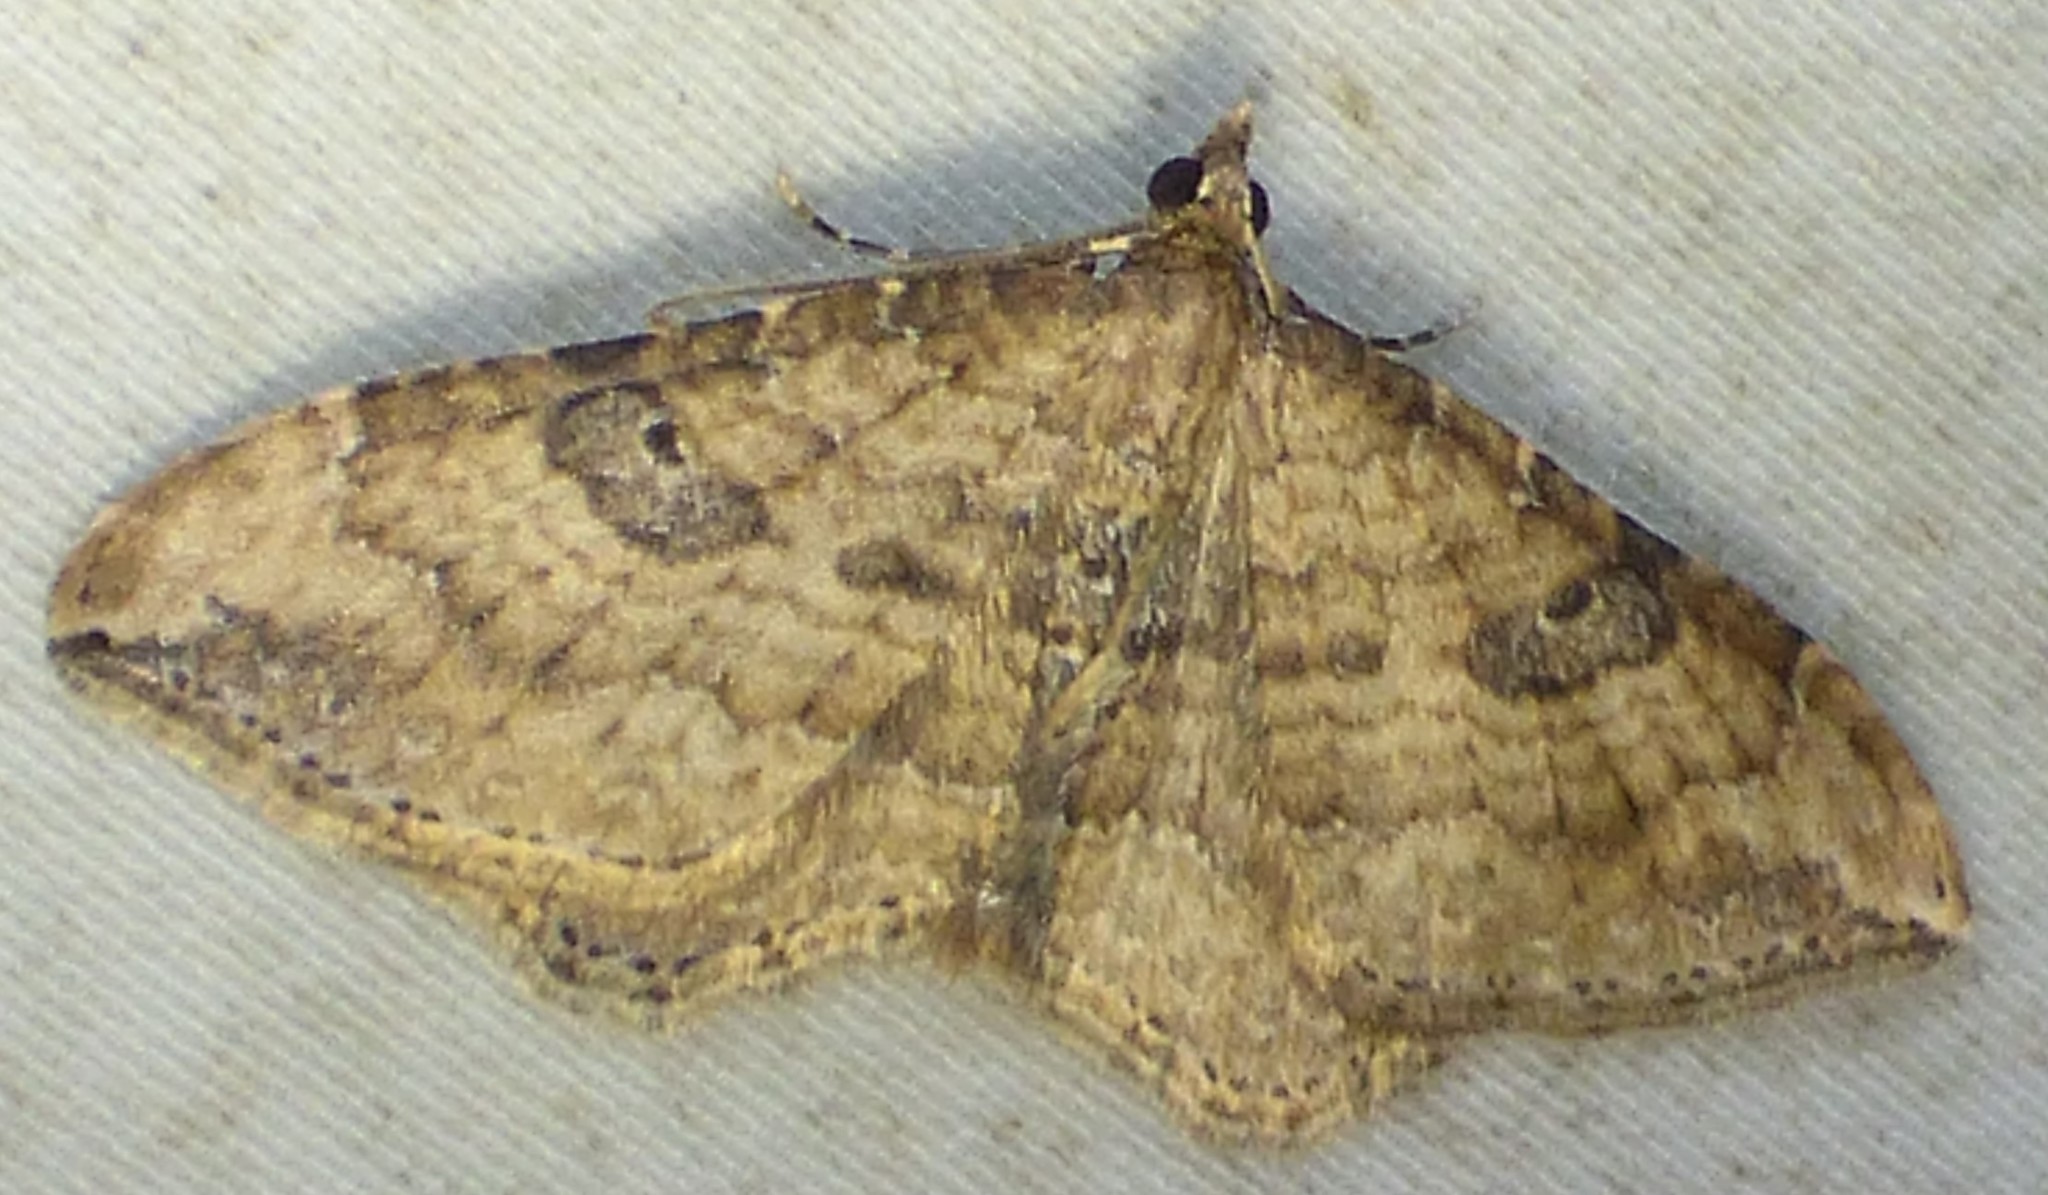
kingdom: Animalia
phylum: Arthropoda
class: Insecta
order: Lepidoptera
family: Geometridae
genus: Orthonama
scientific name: Orthonama obstipata
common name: The gem
